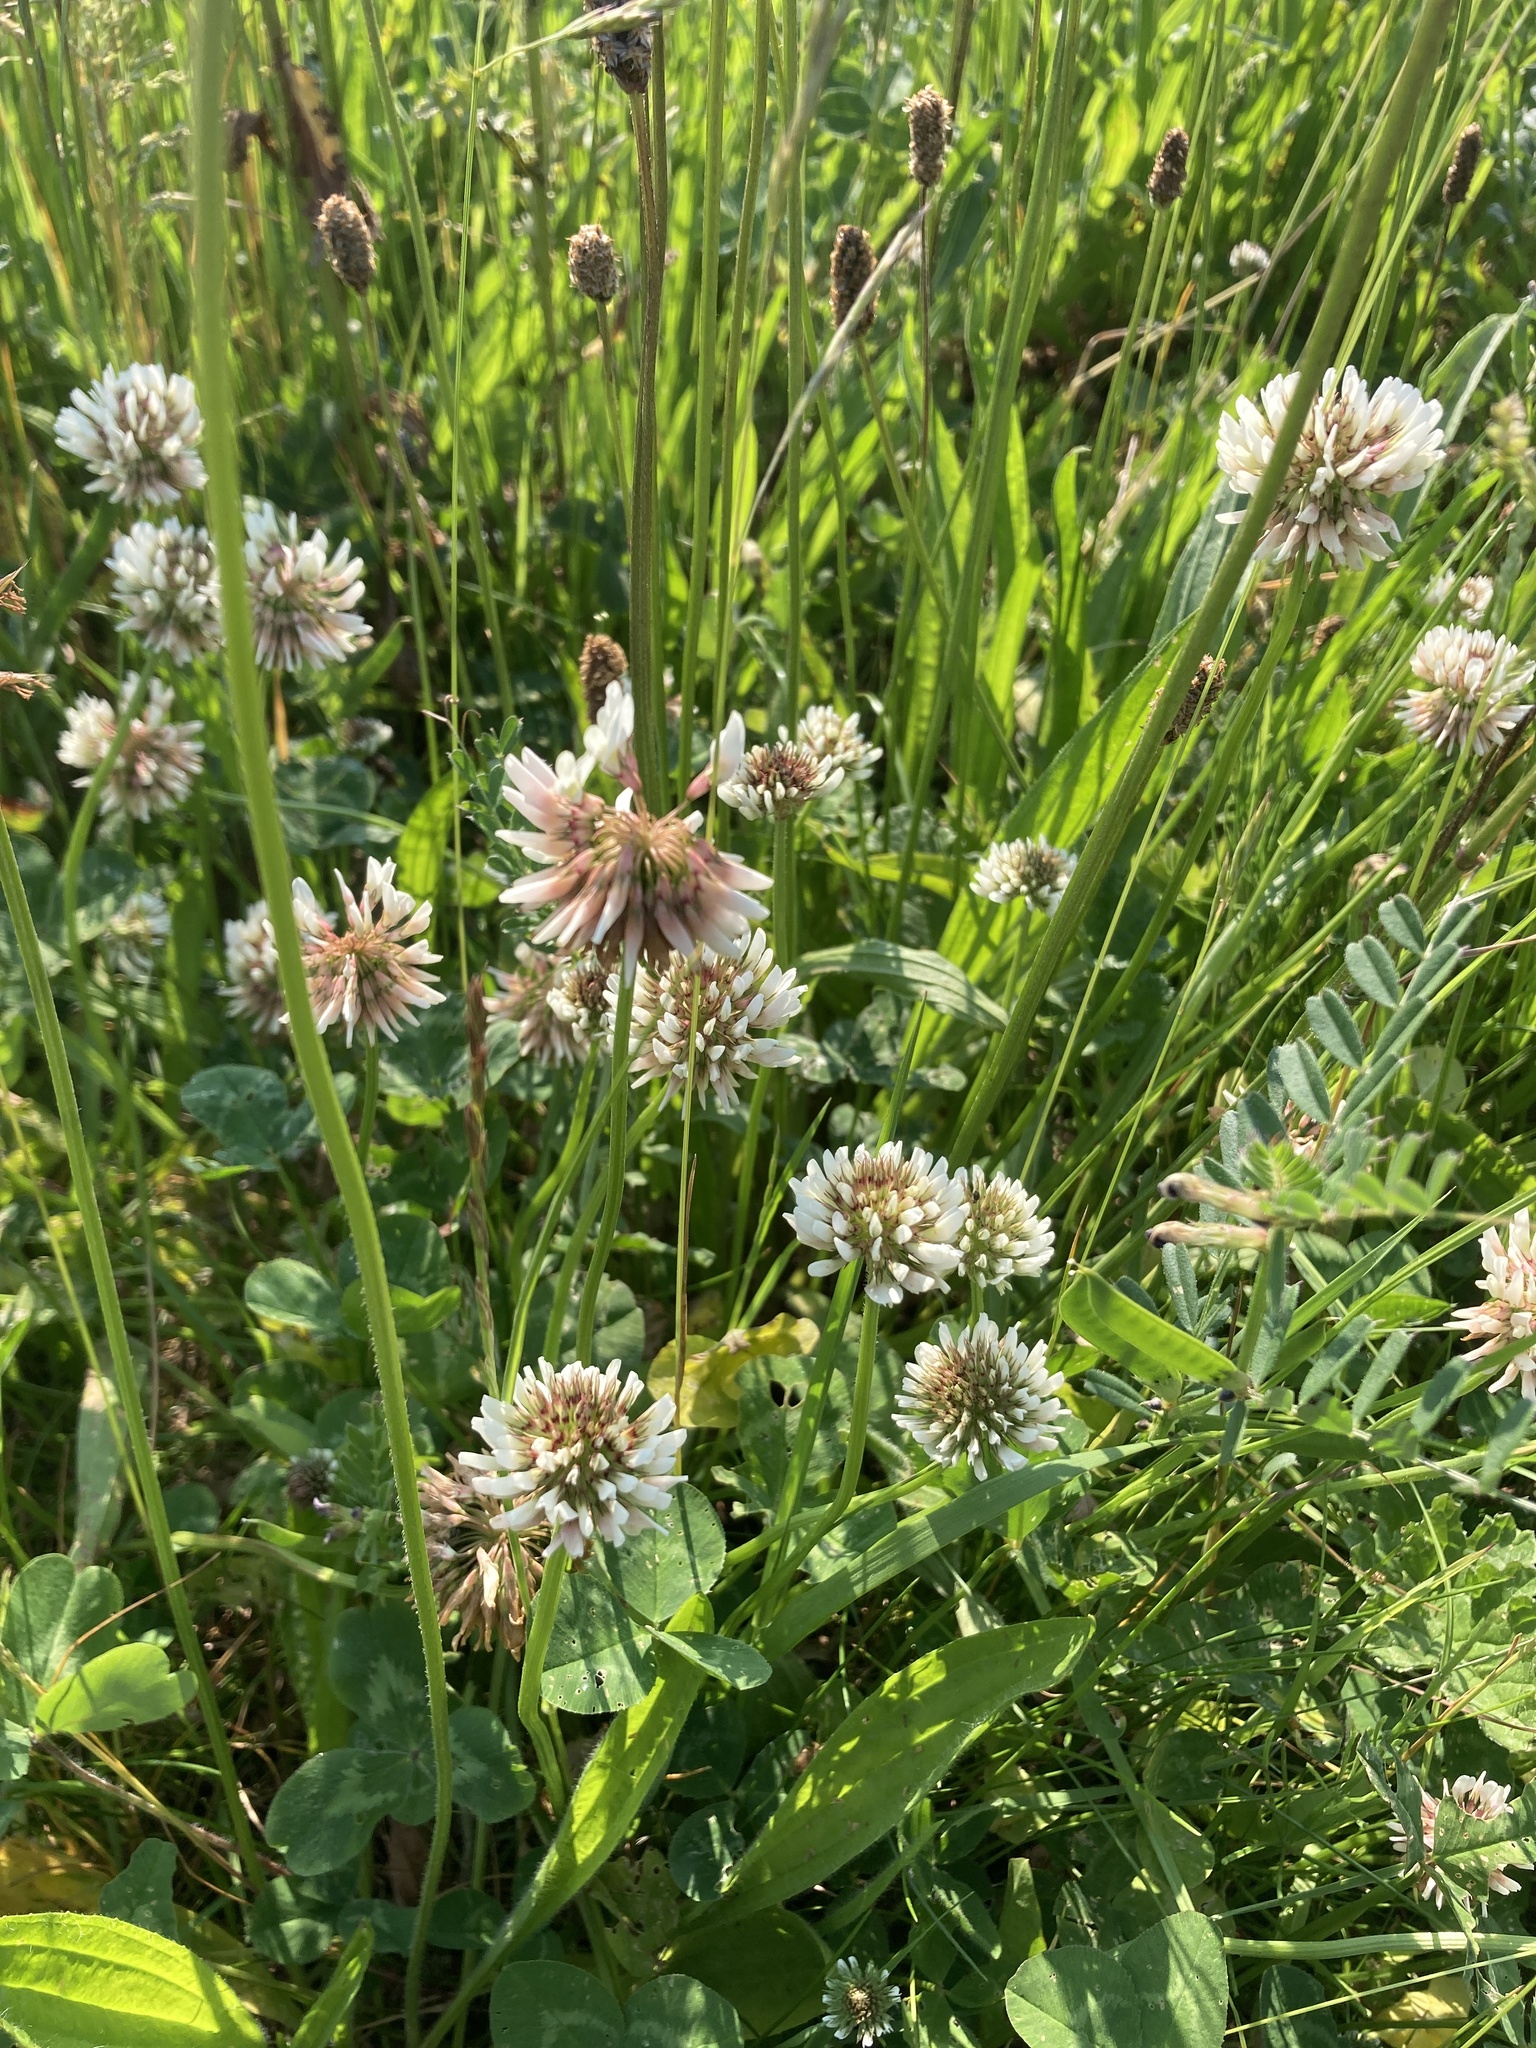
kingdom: Plantae
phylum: Tracheophyta
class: Magnoliopsida
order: Fabales
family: Fabaceae
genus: Trifolium
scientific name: Trifolium repens
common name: White clover
